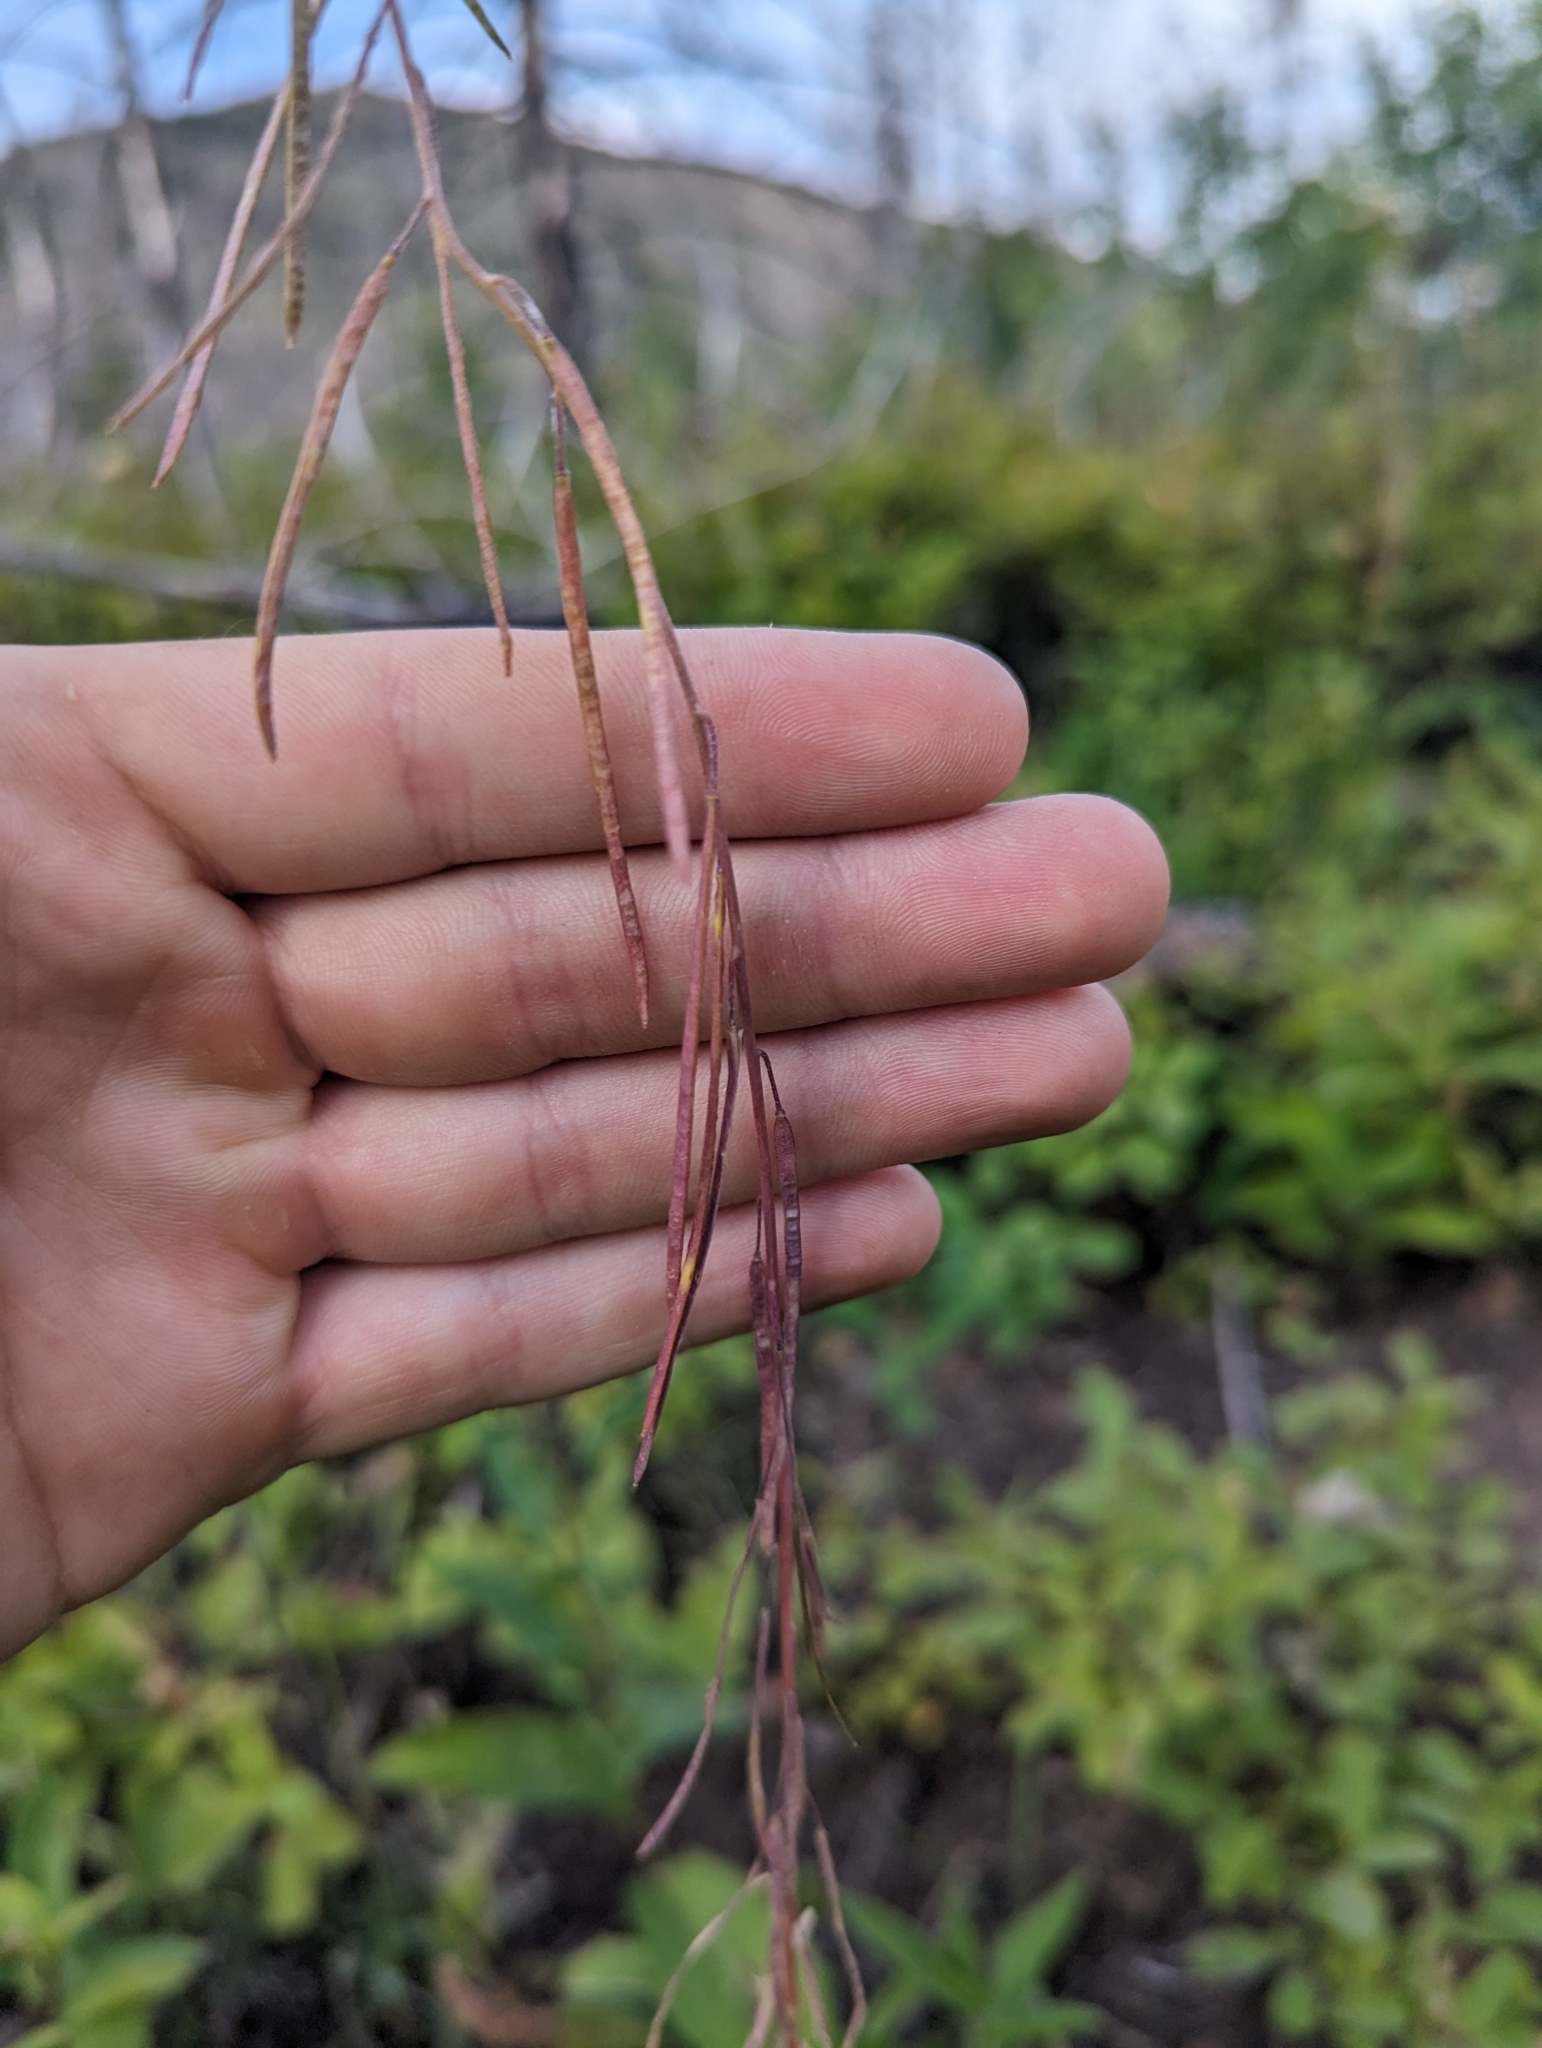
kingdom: Plantae
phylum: Tracheophyta
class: Magnoliopsida
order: Brassicales
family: Brassicaceae
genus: Boechera
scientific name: Boechera retrofracta
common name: Dangling suncress
